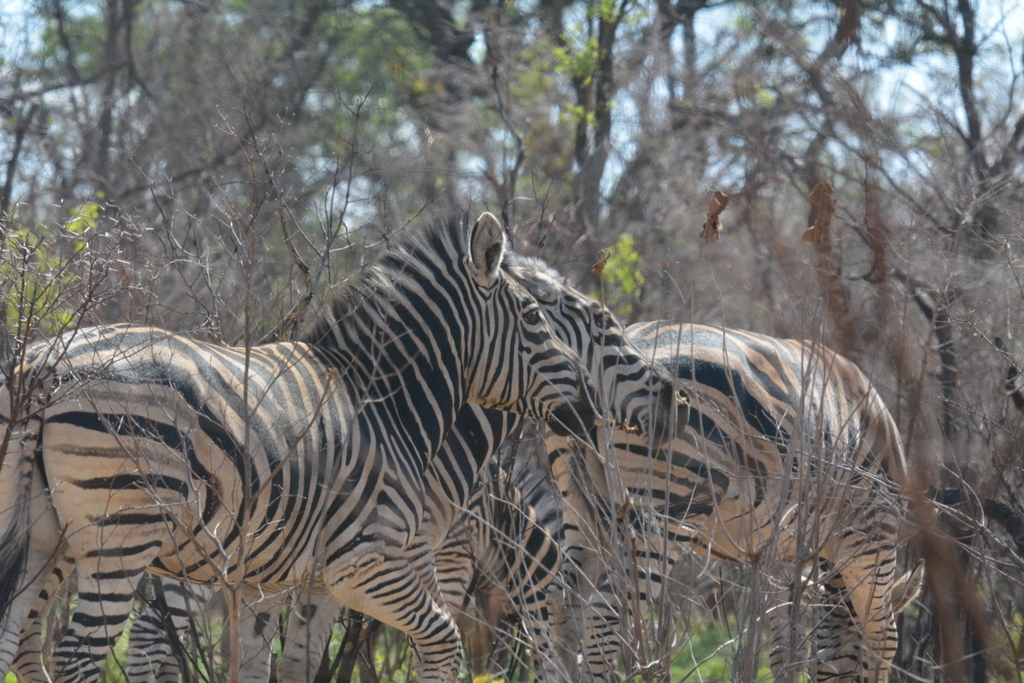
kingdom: Animalia
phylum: Chordata
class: Mammalia
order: Perissodactyla
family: Equidae
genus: Equus
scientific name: Equus quagga
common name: Plains zebra
